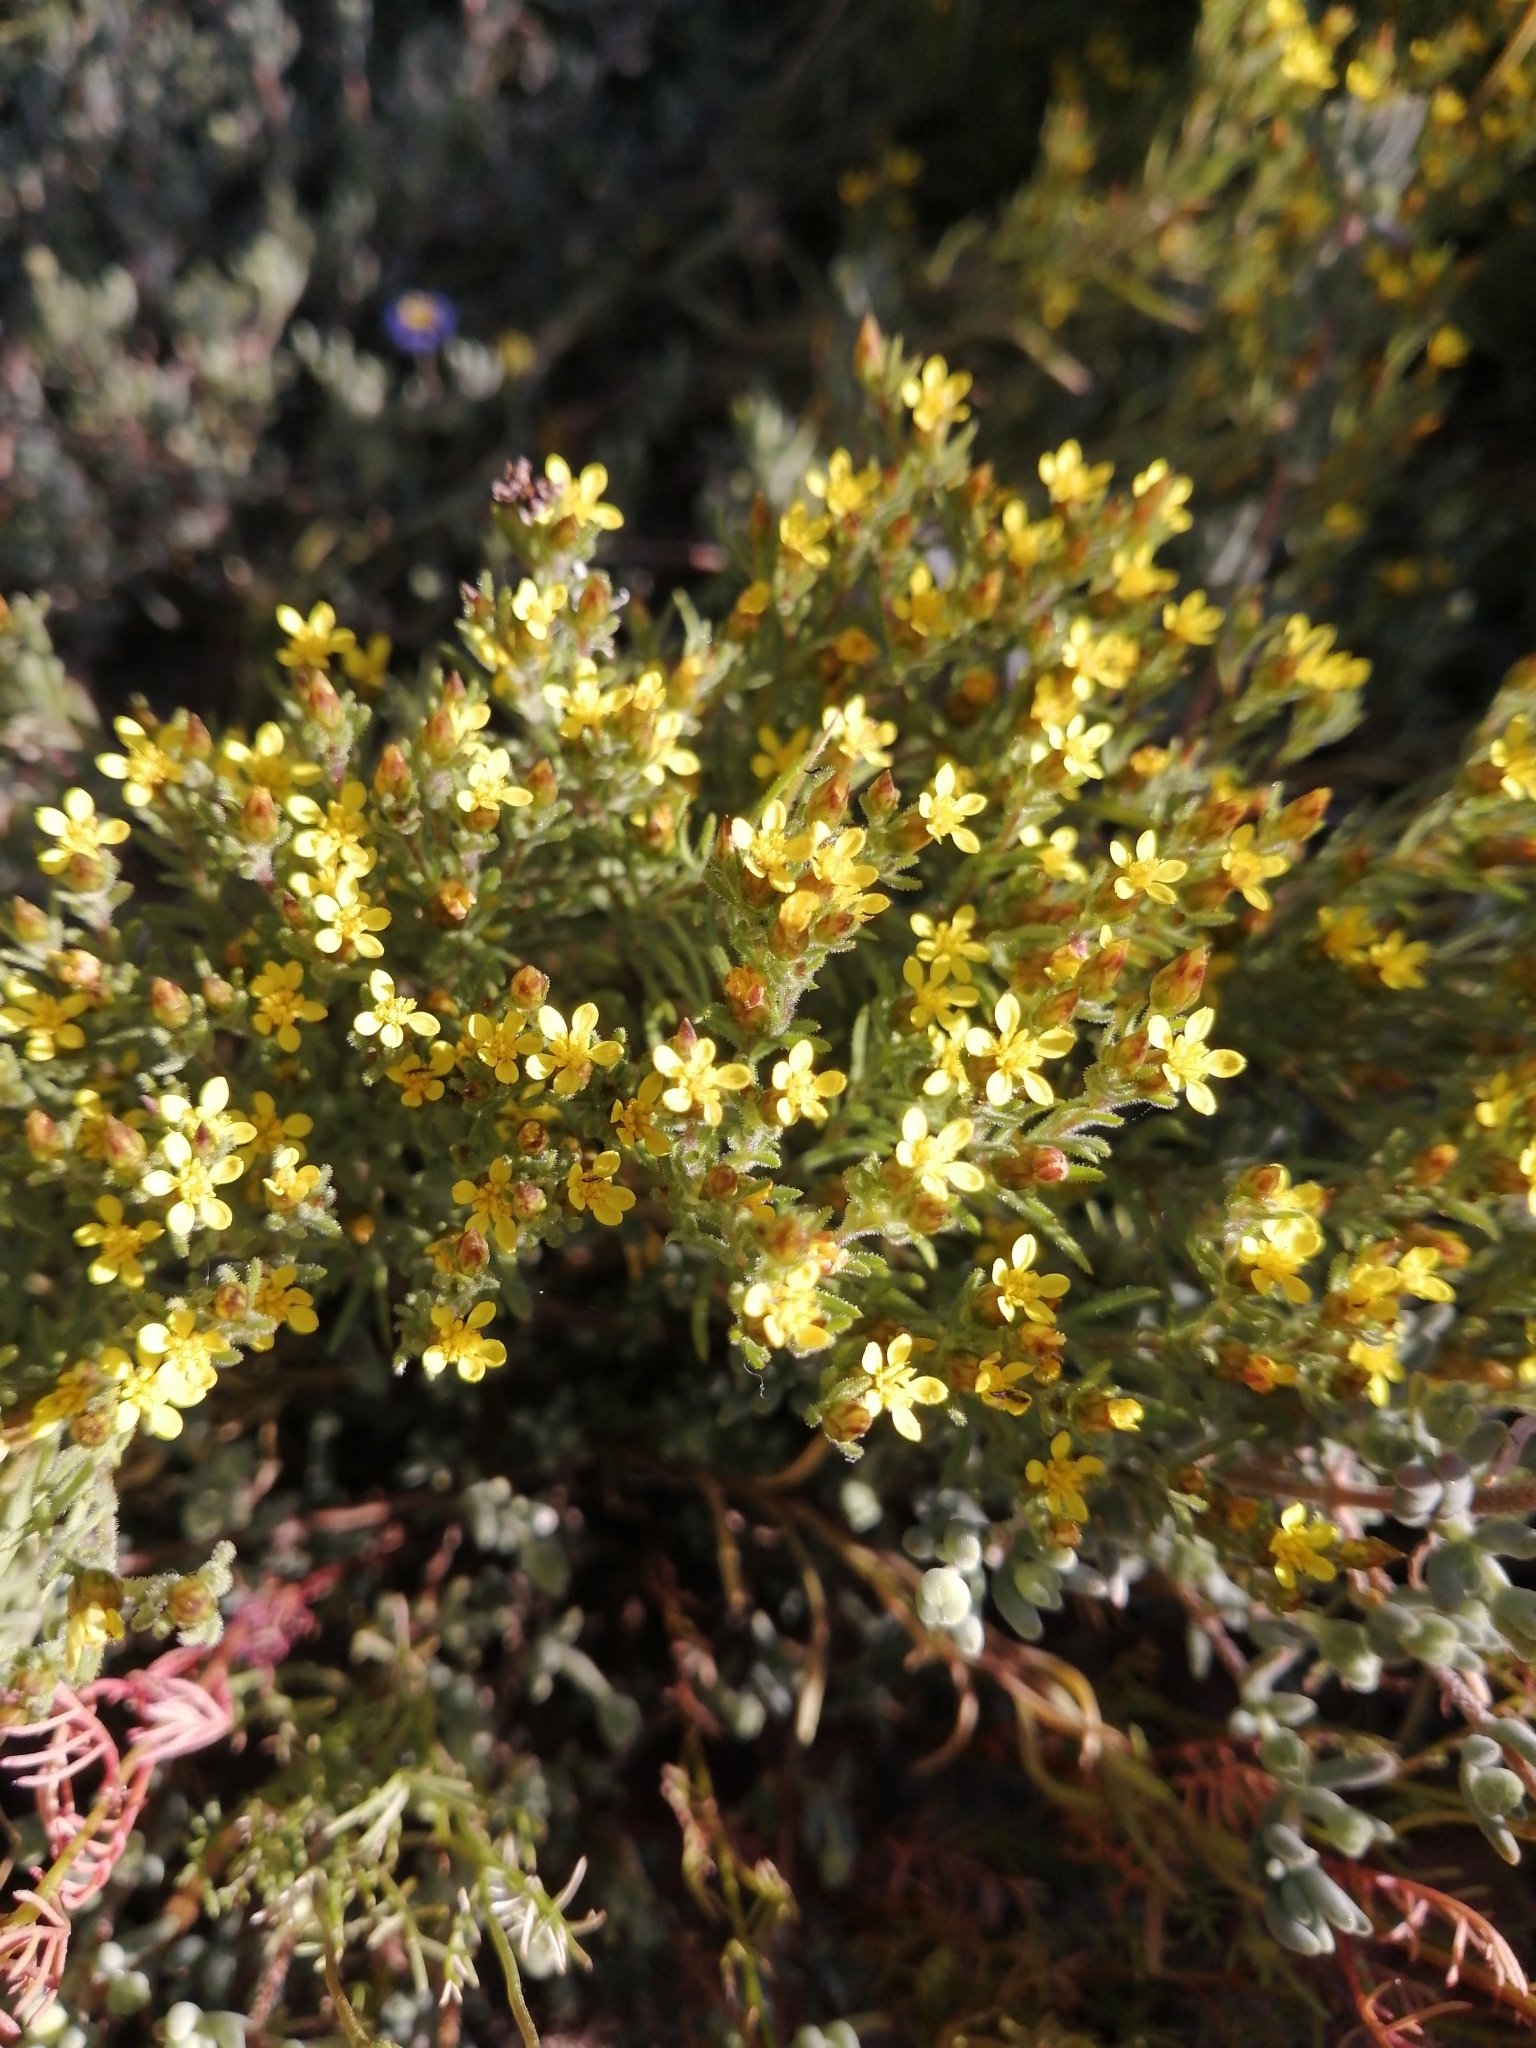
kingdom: Plantae
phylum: Tracheophyta
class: Magnoliopsida
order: Asterales
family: Asteraceae
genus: Rhynchopsidium
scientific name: Rhynchopsidium sessiliflorum
